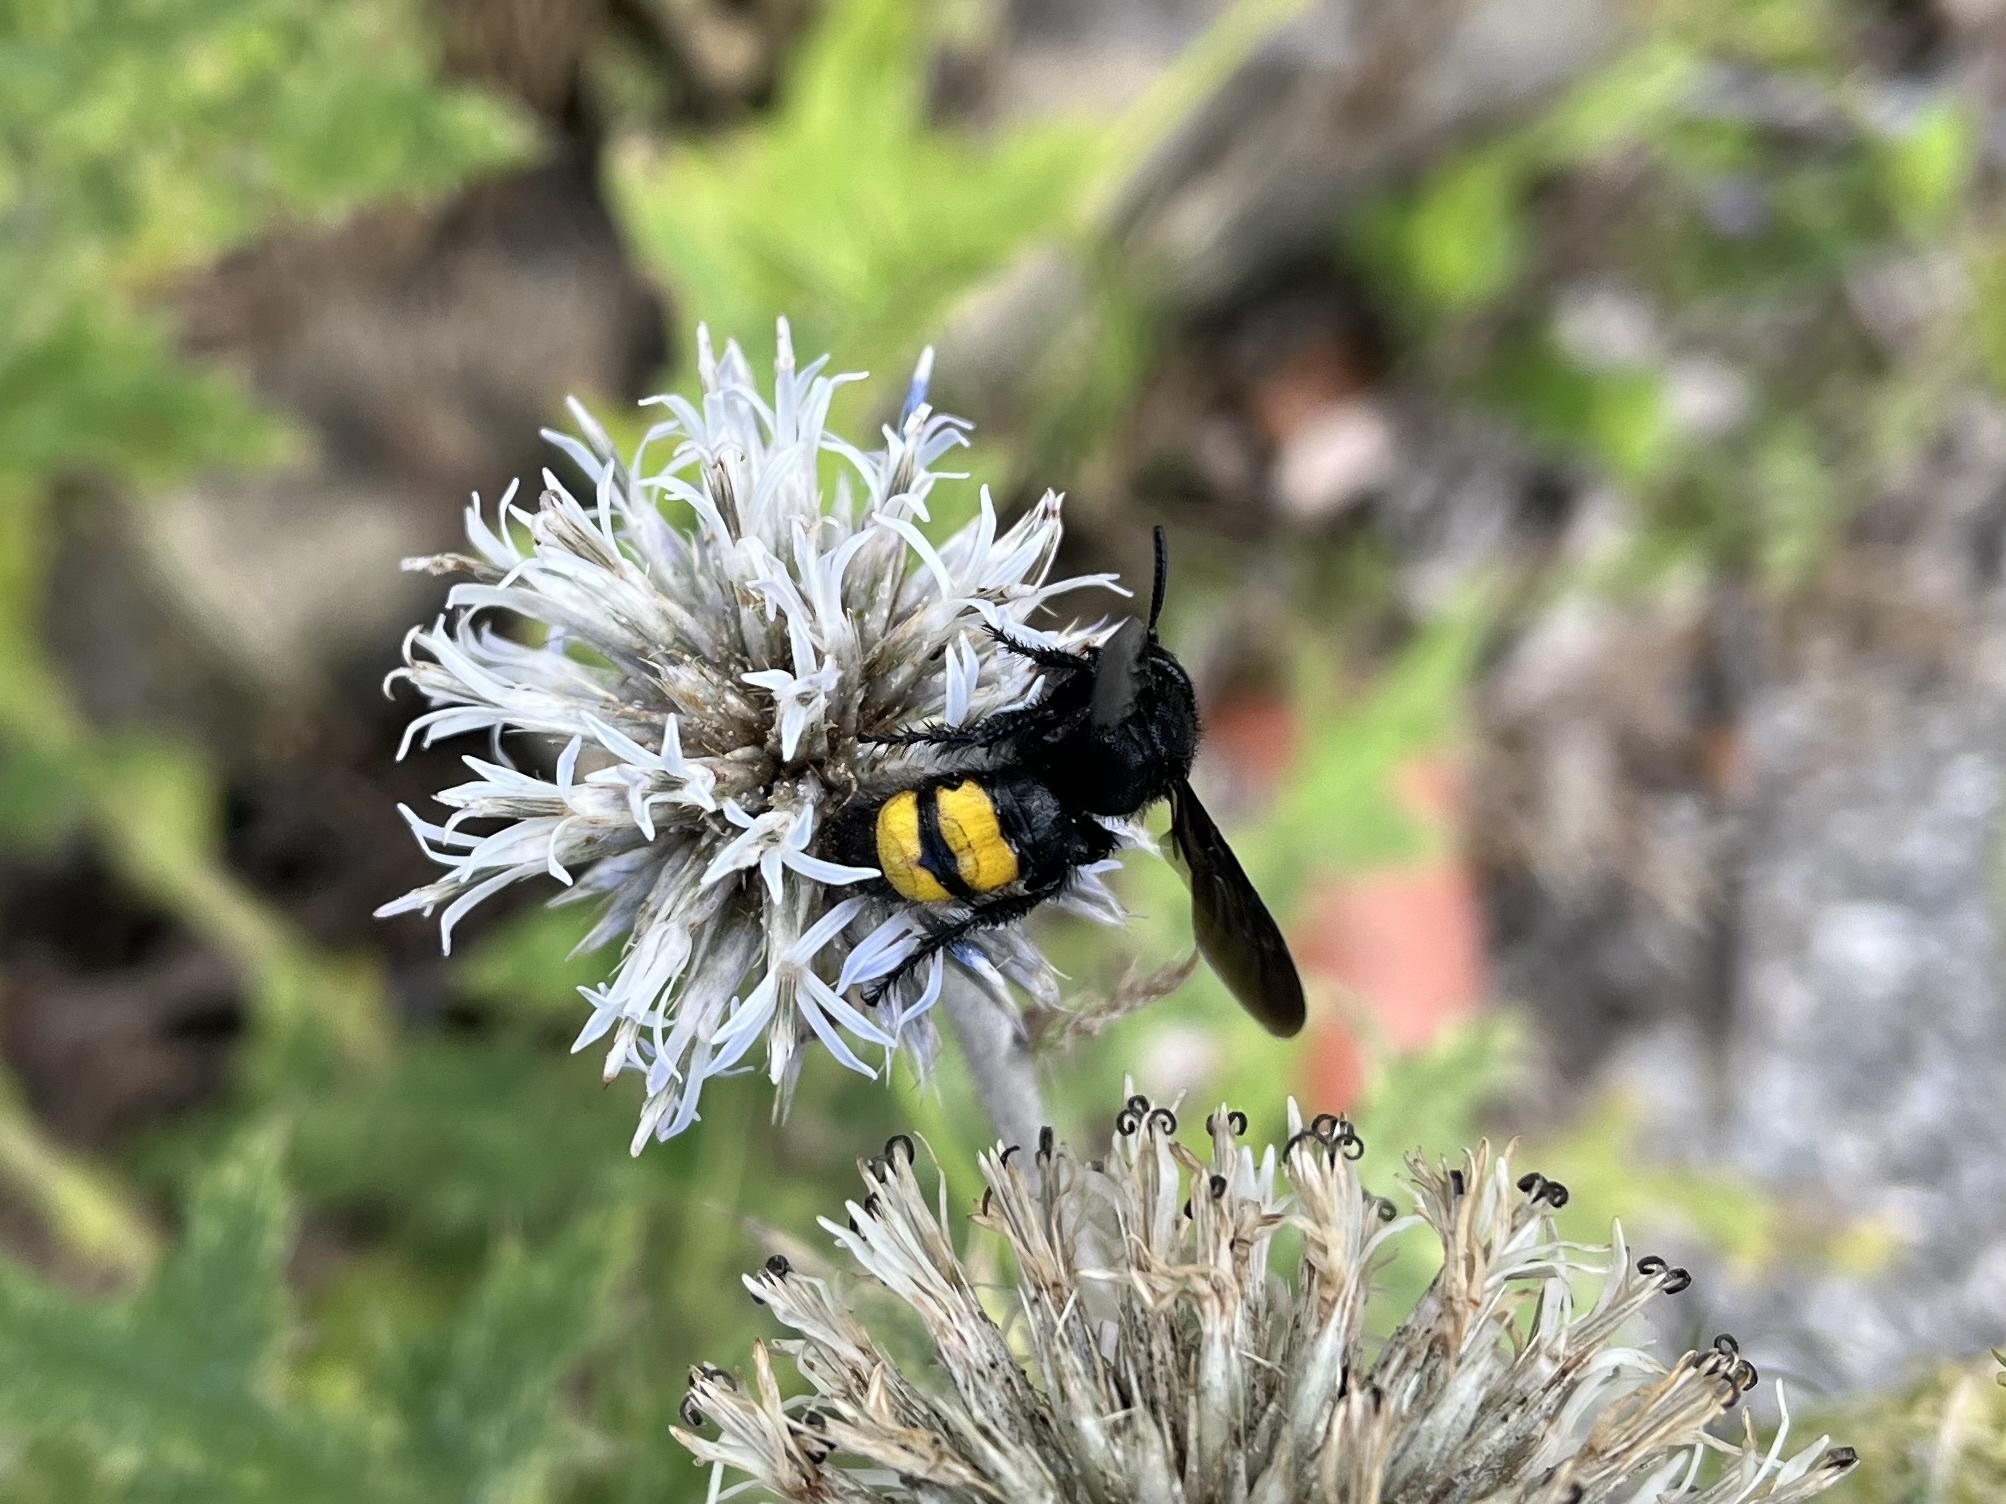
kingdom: Animalia
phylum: Arthropoda
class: Insecta
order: Hymenoptera
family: Scoliidae
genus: Scolia
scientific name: Scolia hirta
